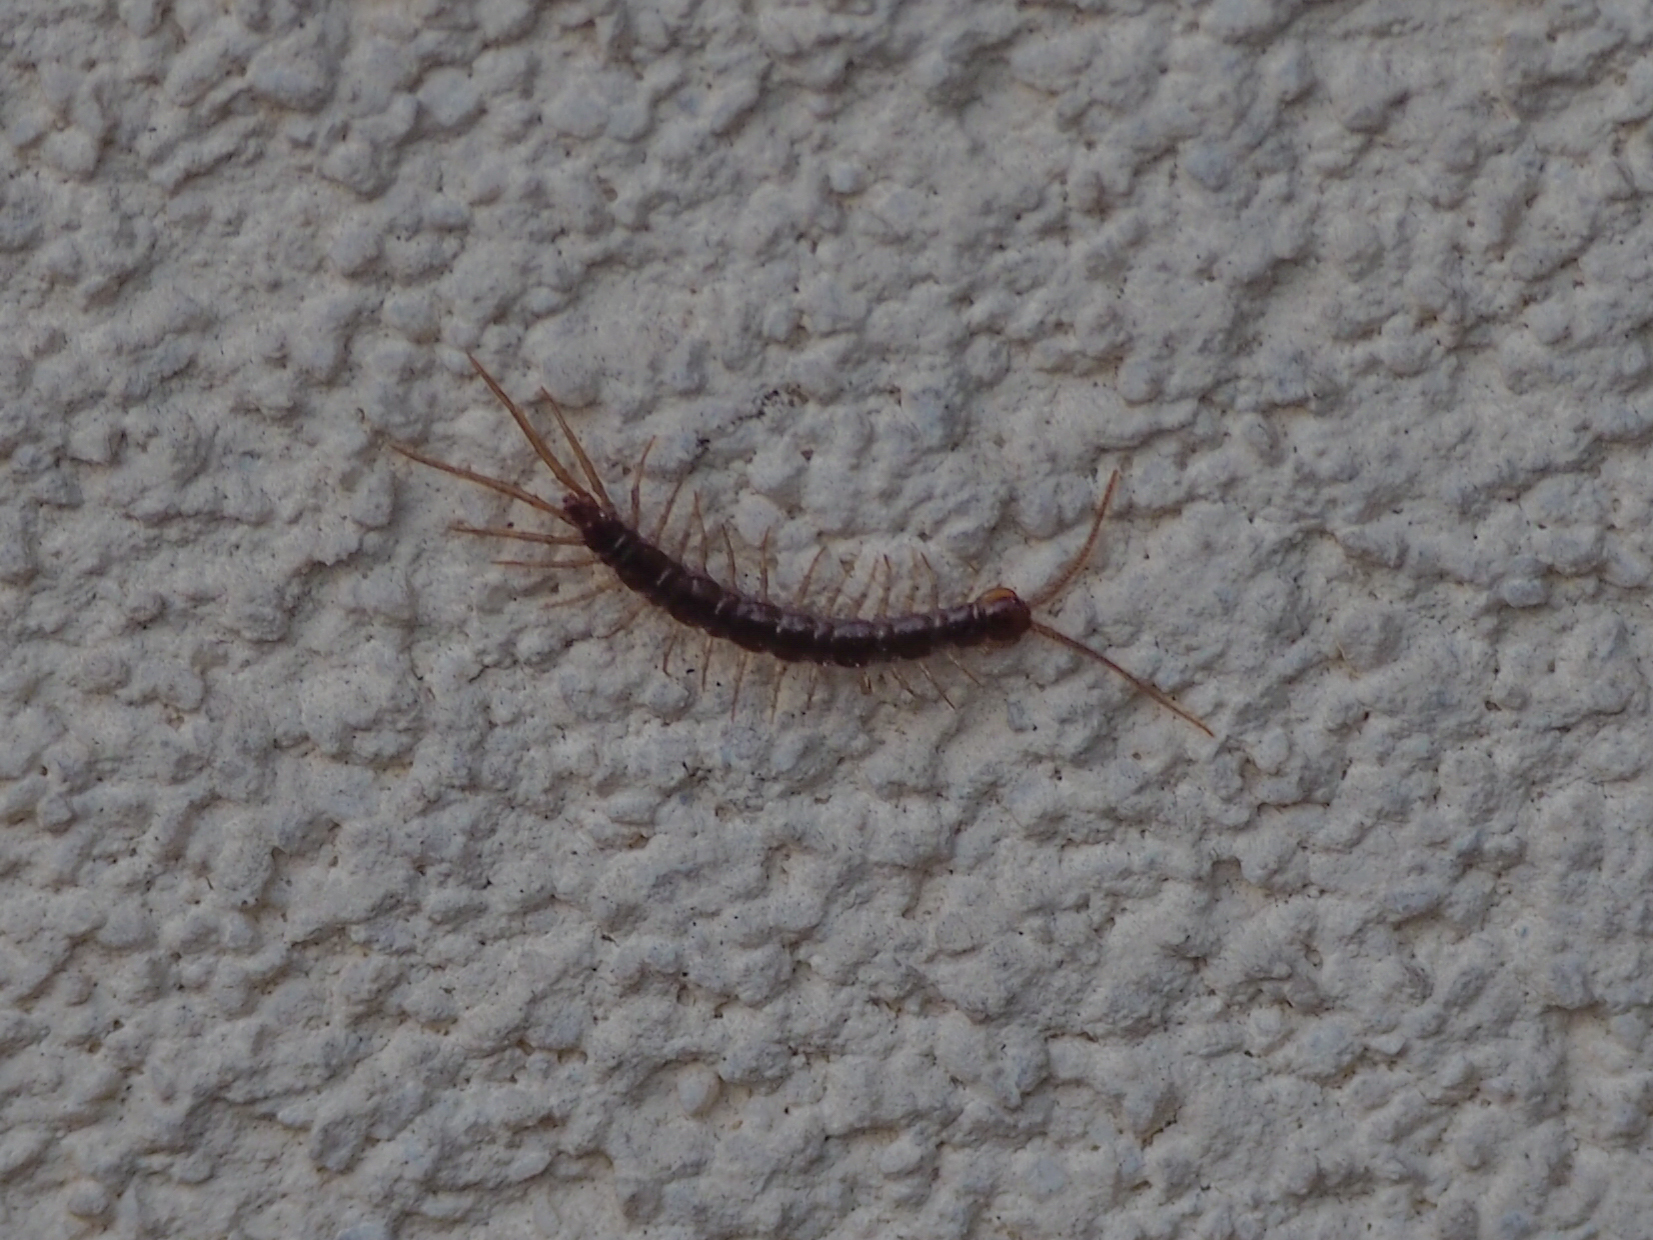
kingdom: Animalia
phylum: Arthropoda
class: Chilopoda
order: Lithobiomorpha
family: Lithobiidae
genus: Lithobius
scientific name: Lithobius
